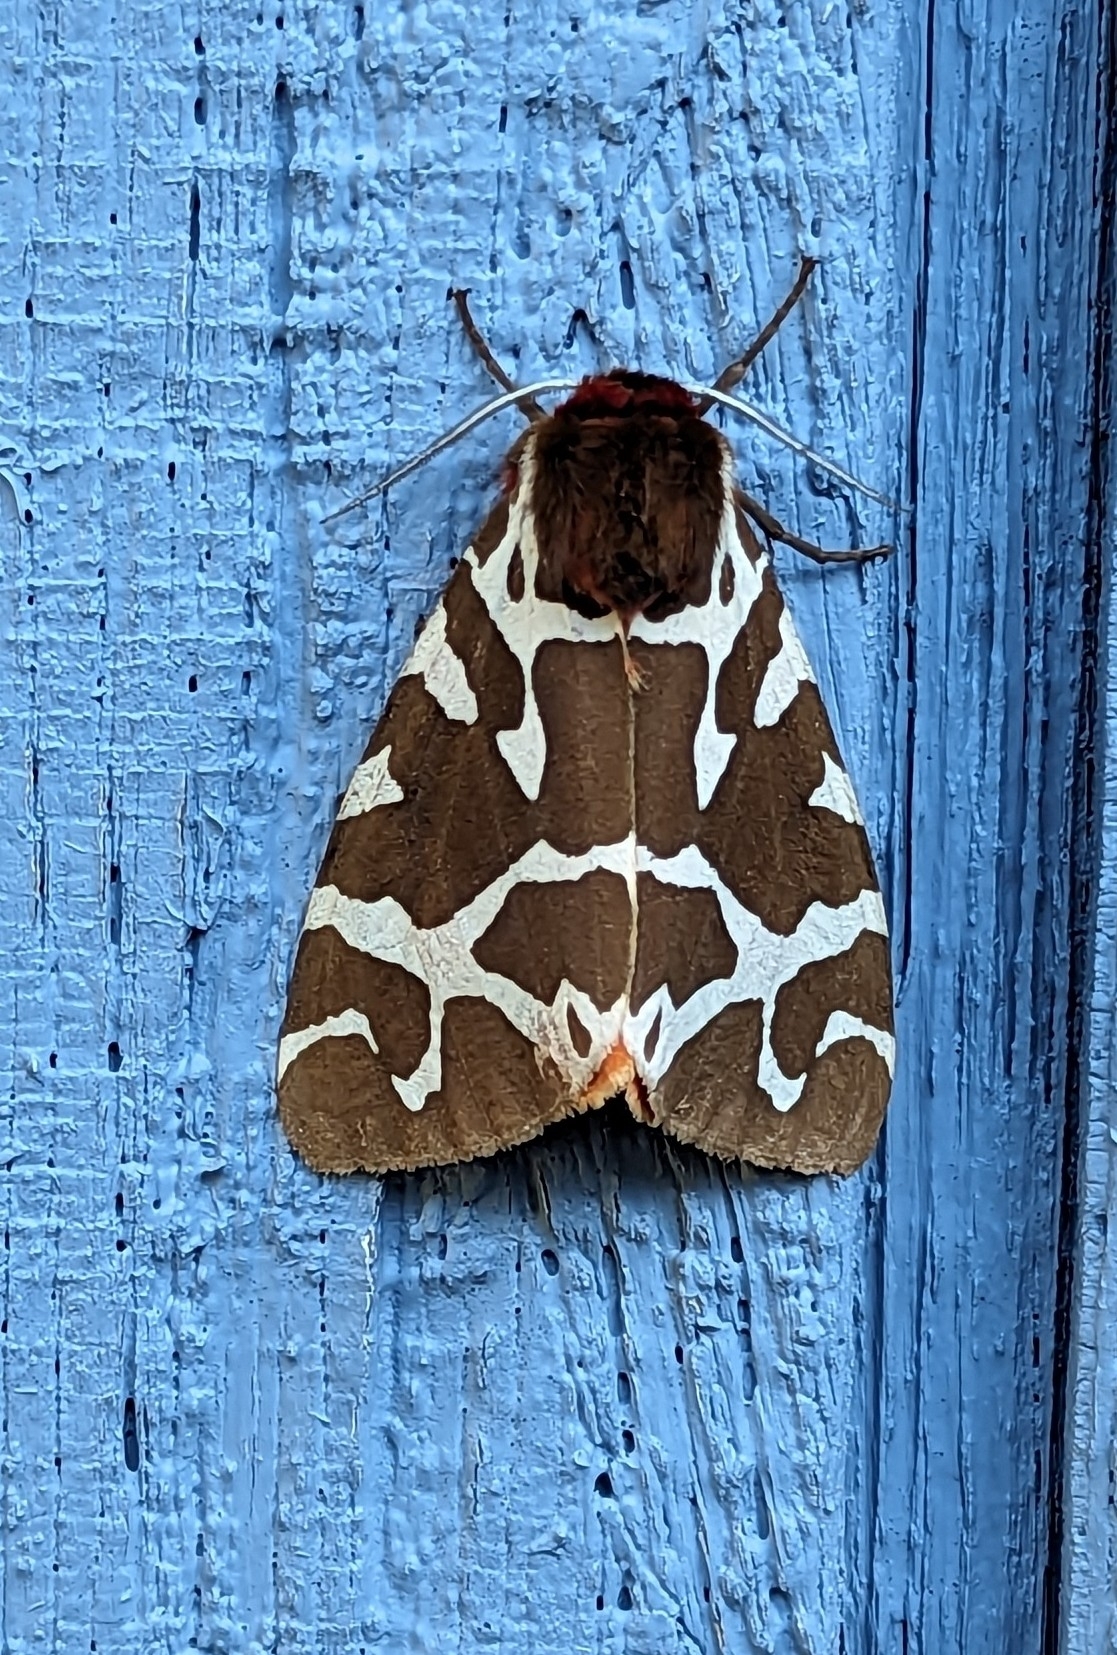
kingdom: Animalia
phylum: Arthropoda
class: Insecta
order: Lepidoptera
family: Erebidae
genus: Arctia
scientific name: Arctia caja
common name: Garden tiger
